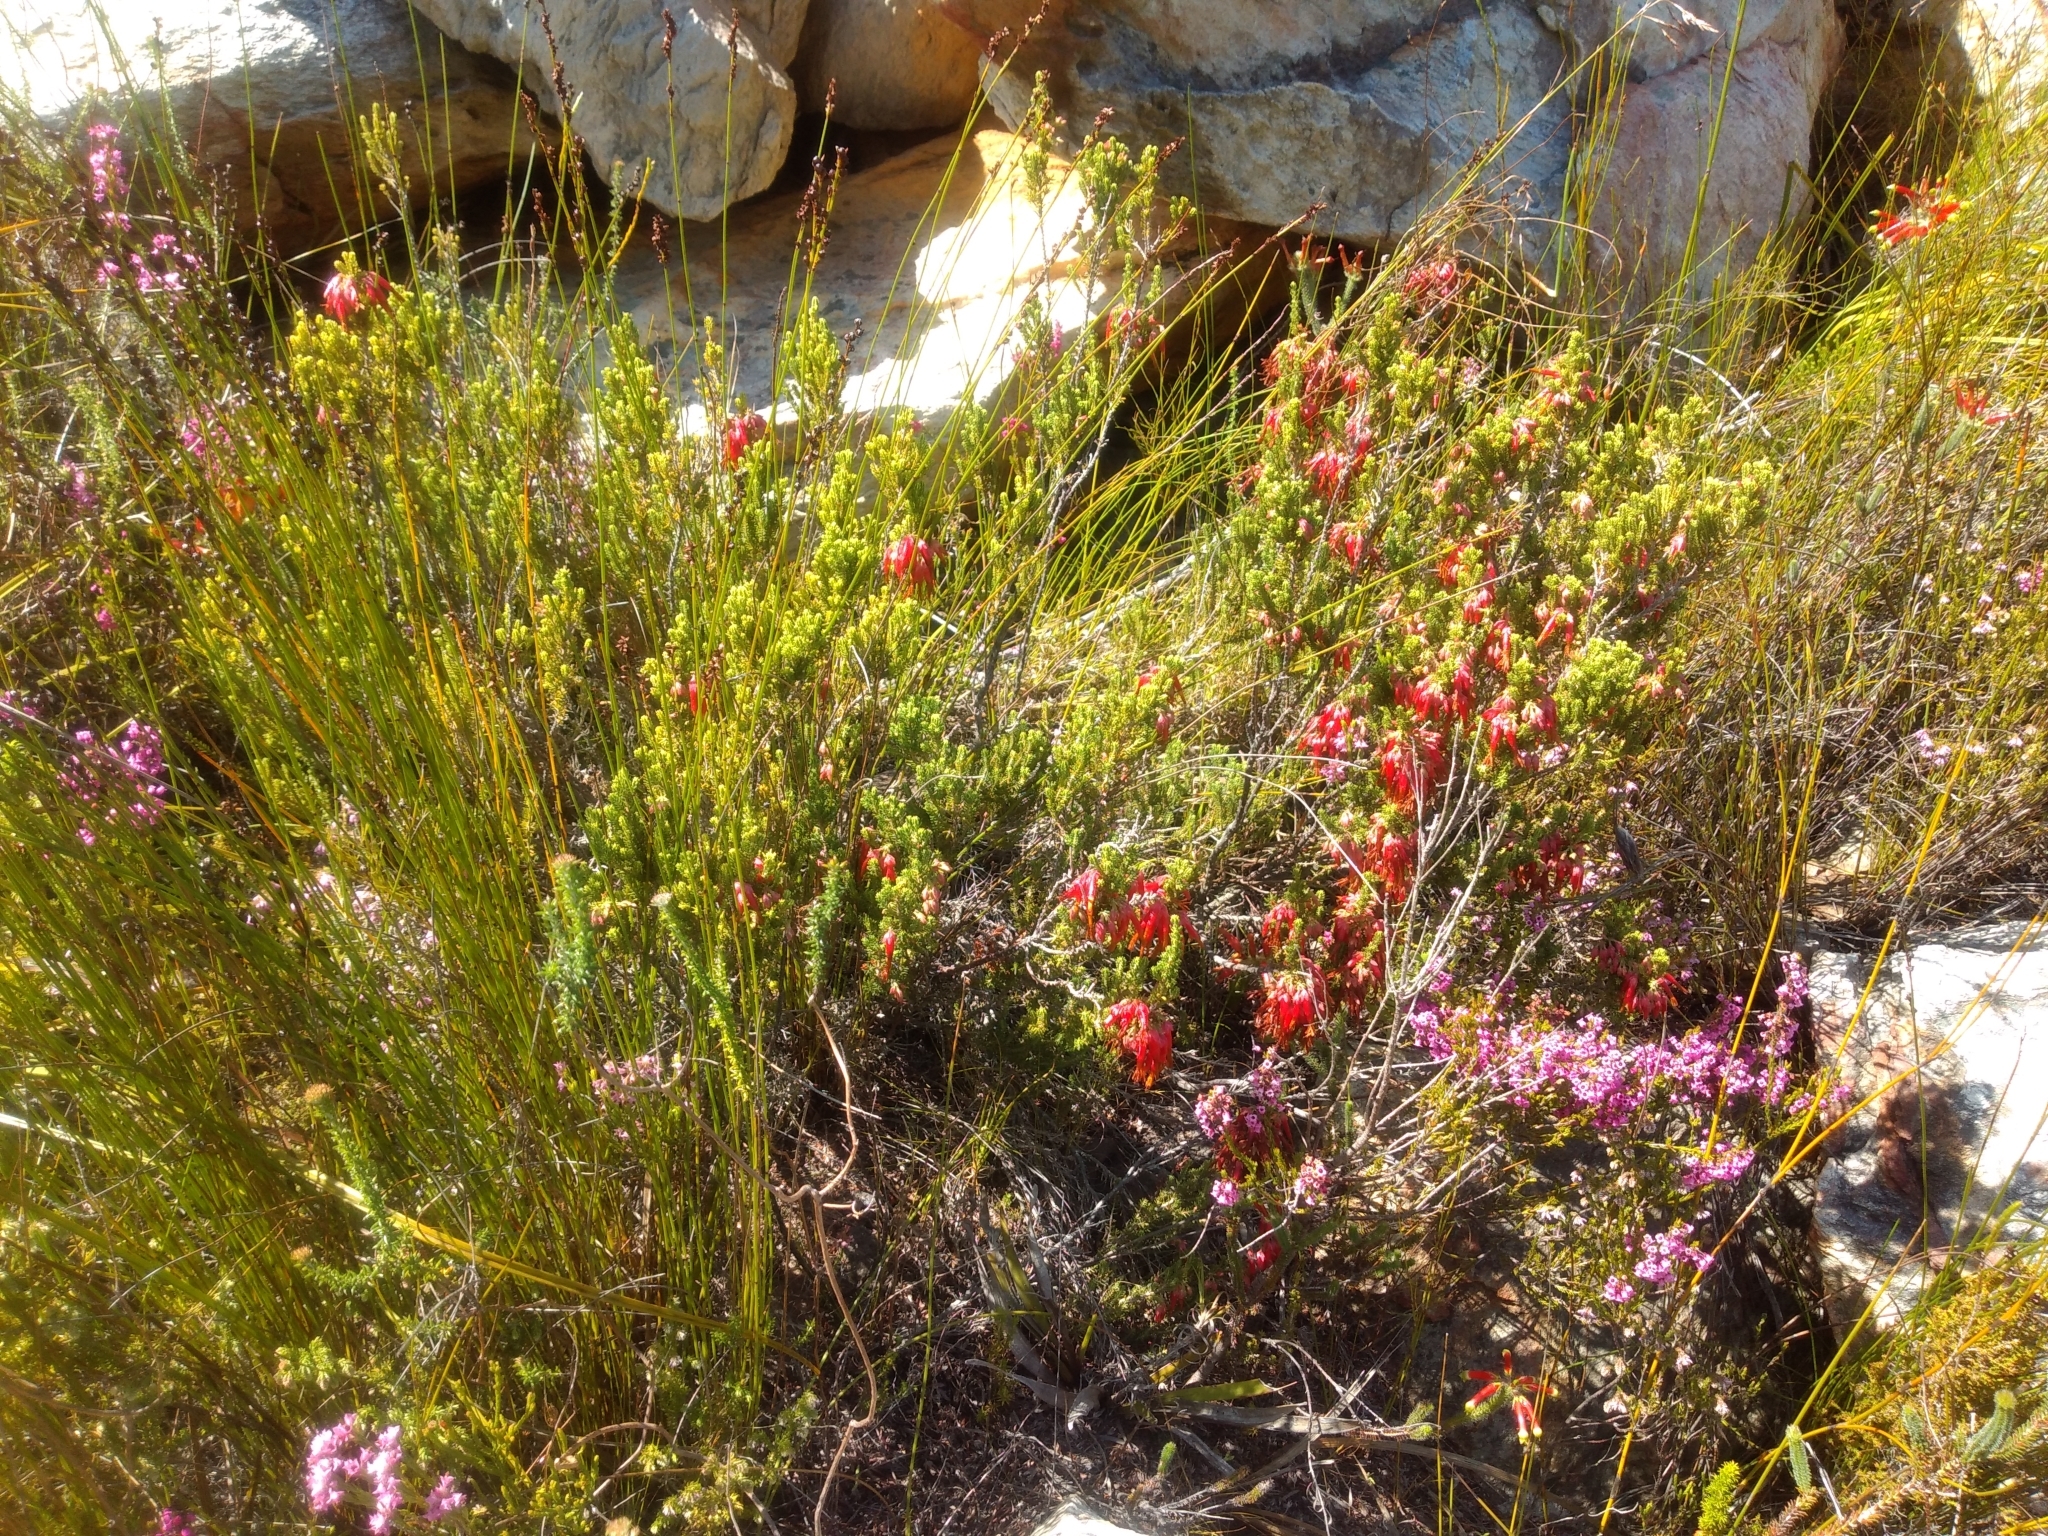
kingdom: Plantae
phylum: Tracheophyta
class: Magnoliopsida
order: Ericales
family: Ericaceae
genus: Erica
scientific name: Erica monadelphia
